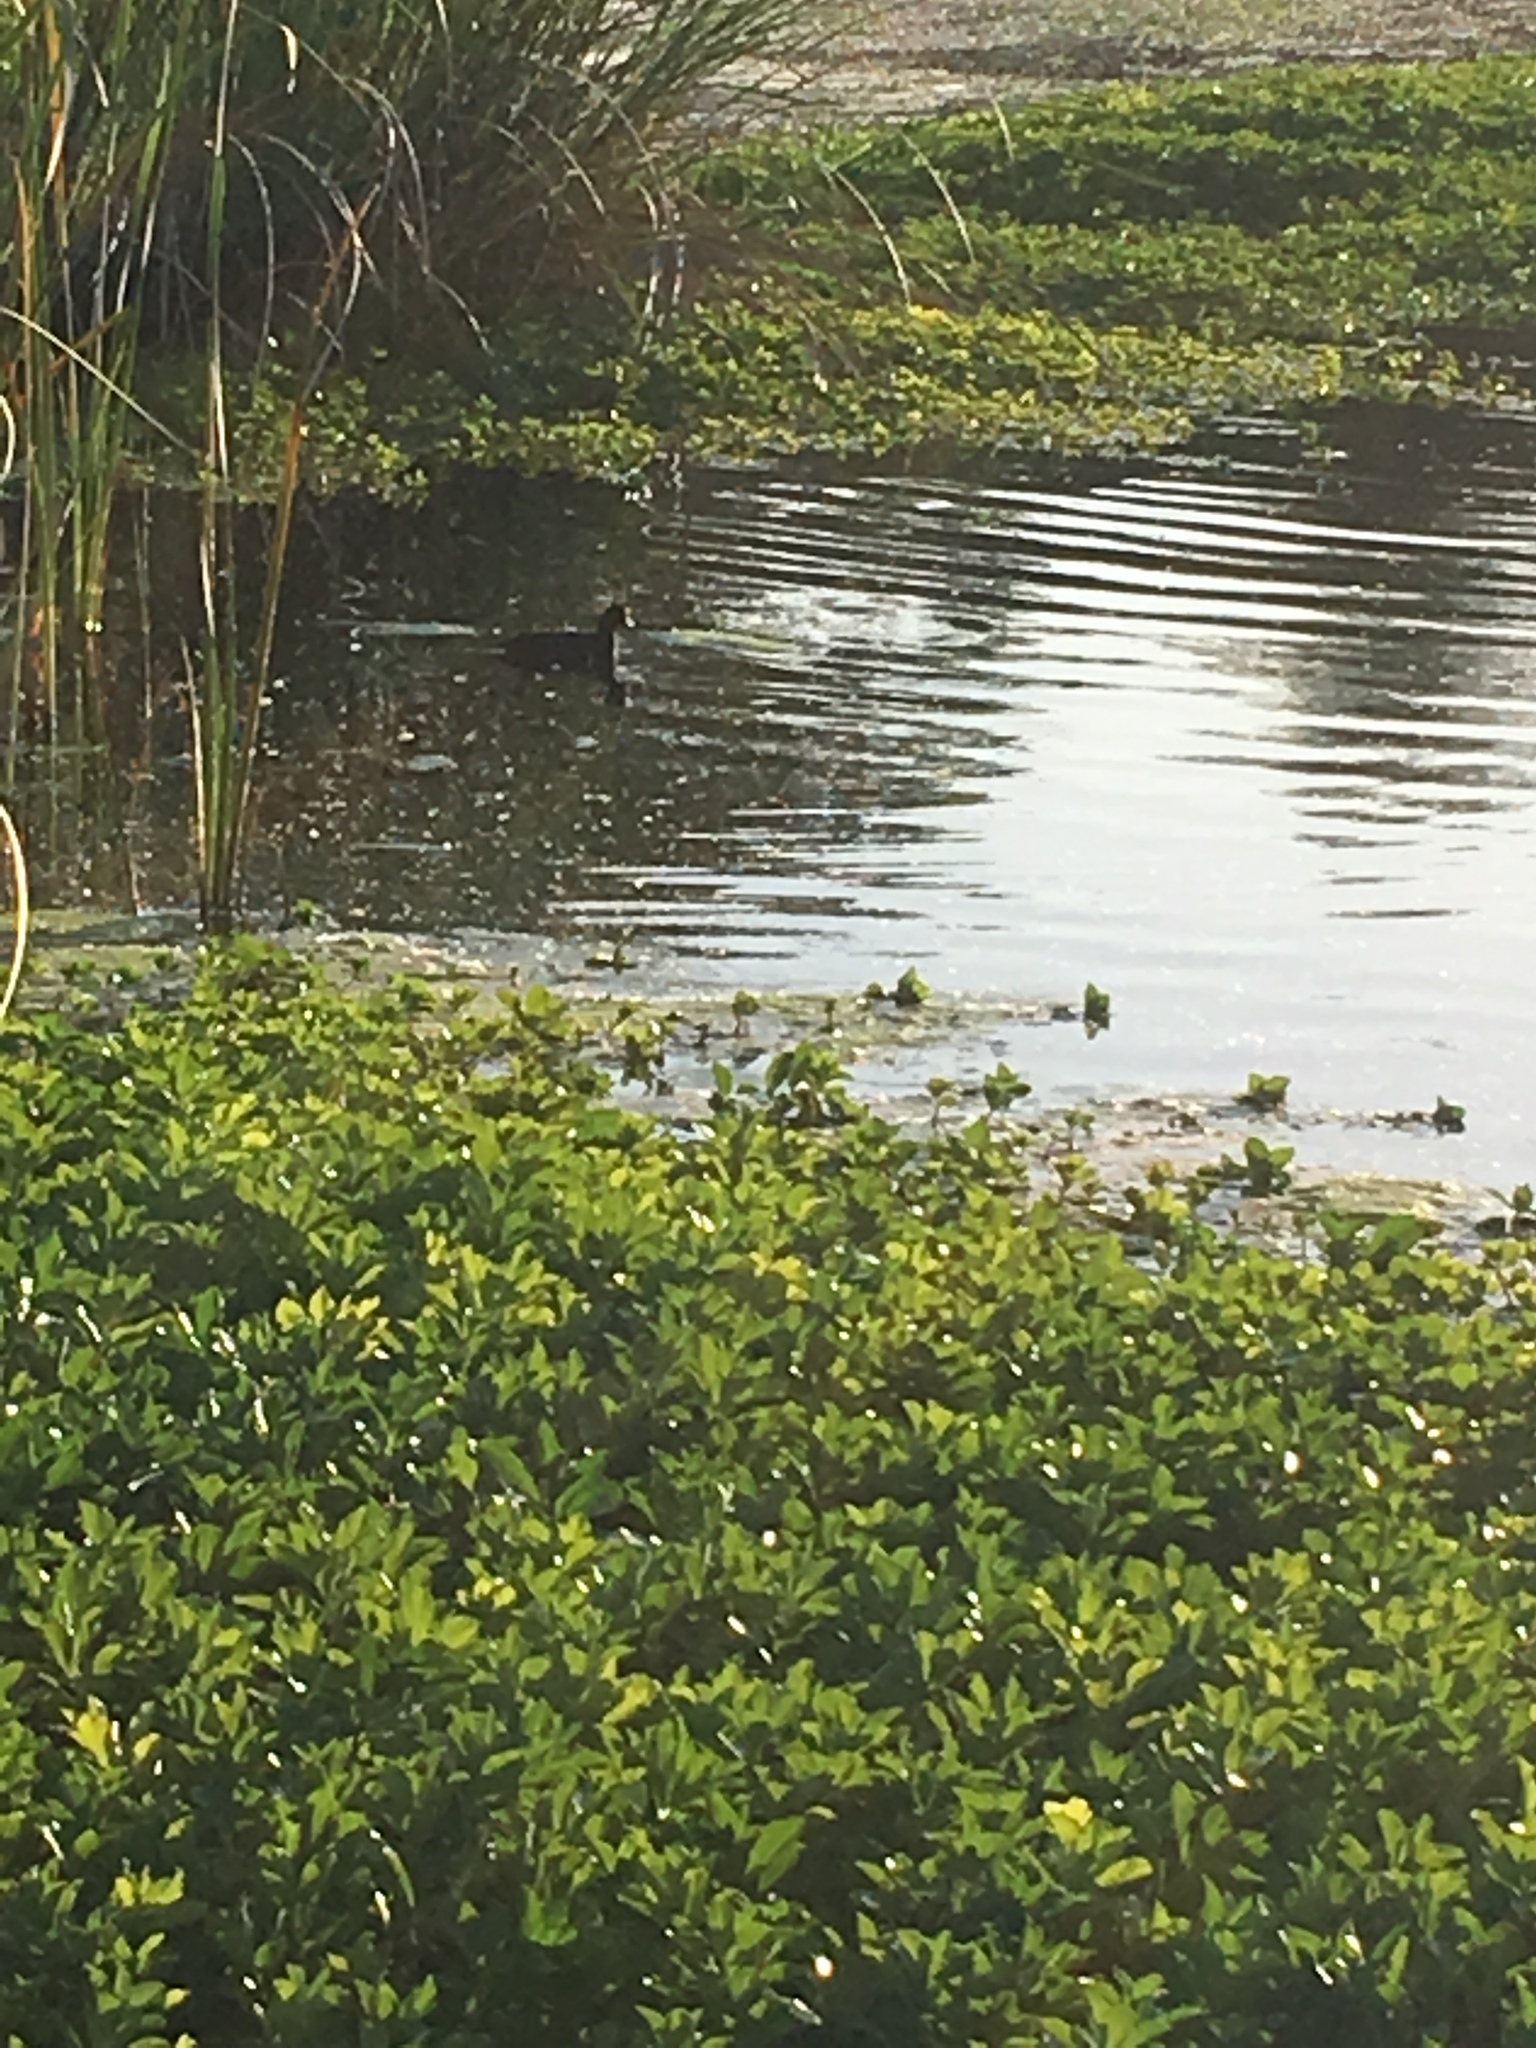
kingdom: Animalia
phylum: Chordata
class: Aves
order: Gruiformes
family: Rallidae
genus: Fulica
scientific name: Fulica americana
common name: American coot
